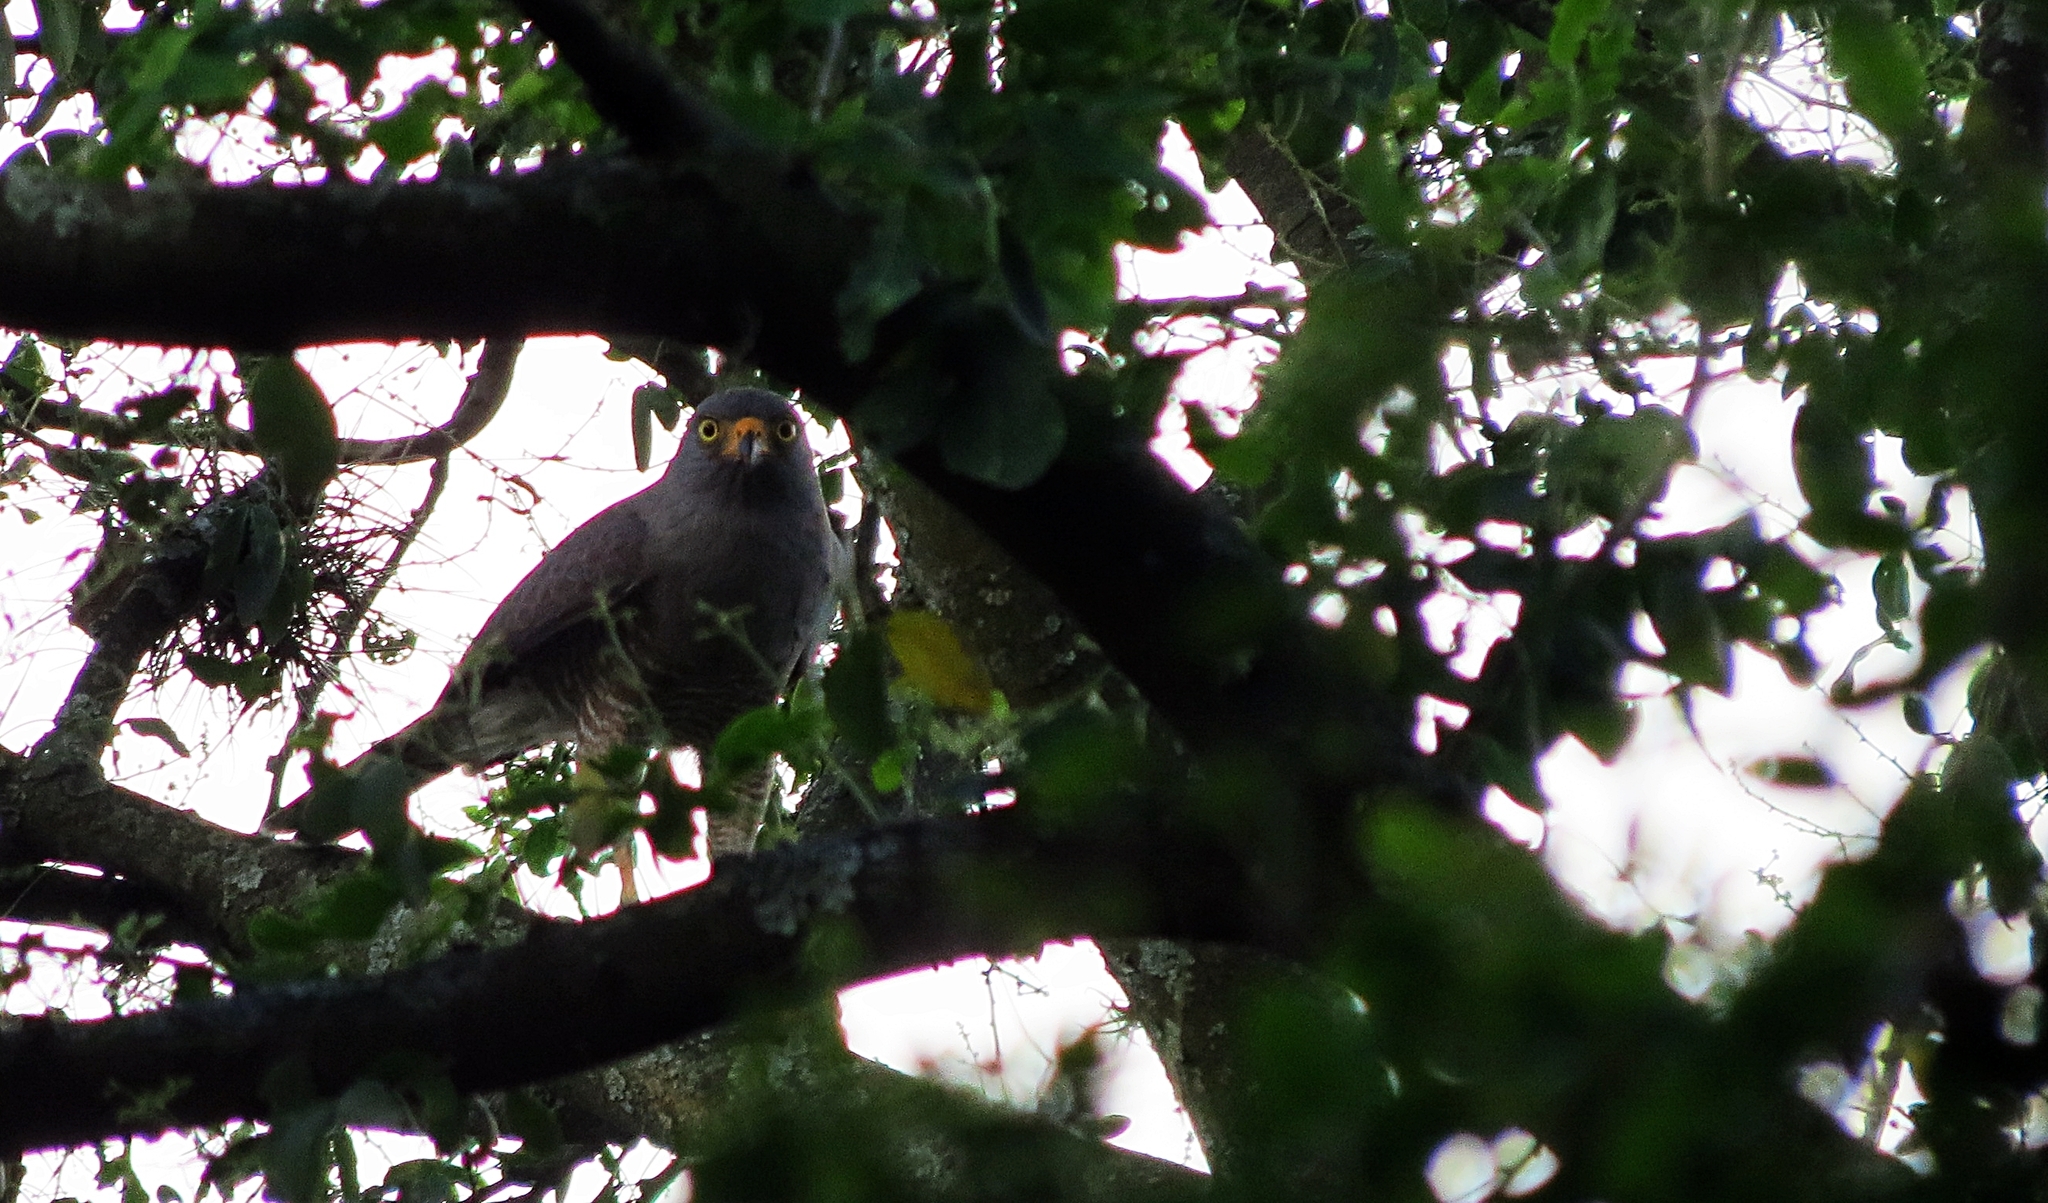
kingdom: Animalia
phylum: Chordata
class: Aves
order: Accipitriformes
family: Accipitridae
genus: Rupornis
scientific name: Rupornis magnirostris
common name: Roadside hawk
